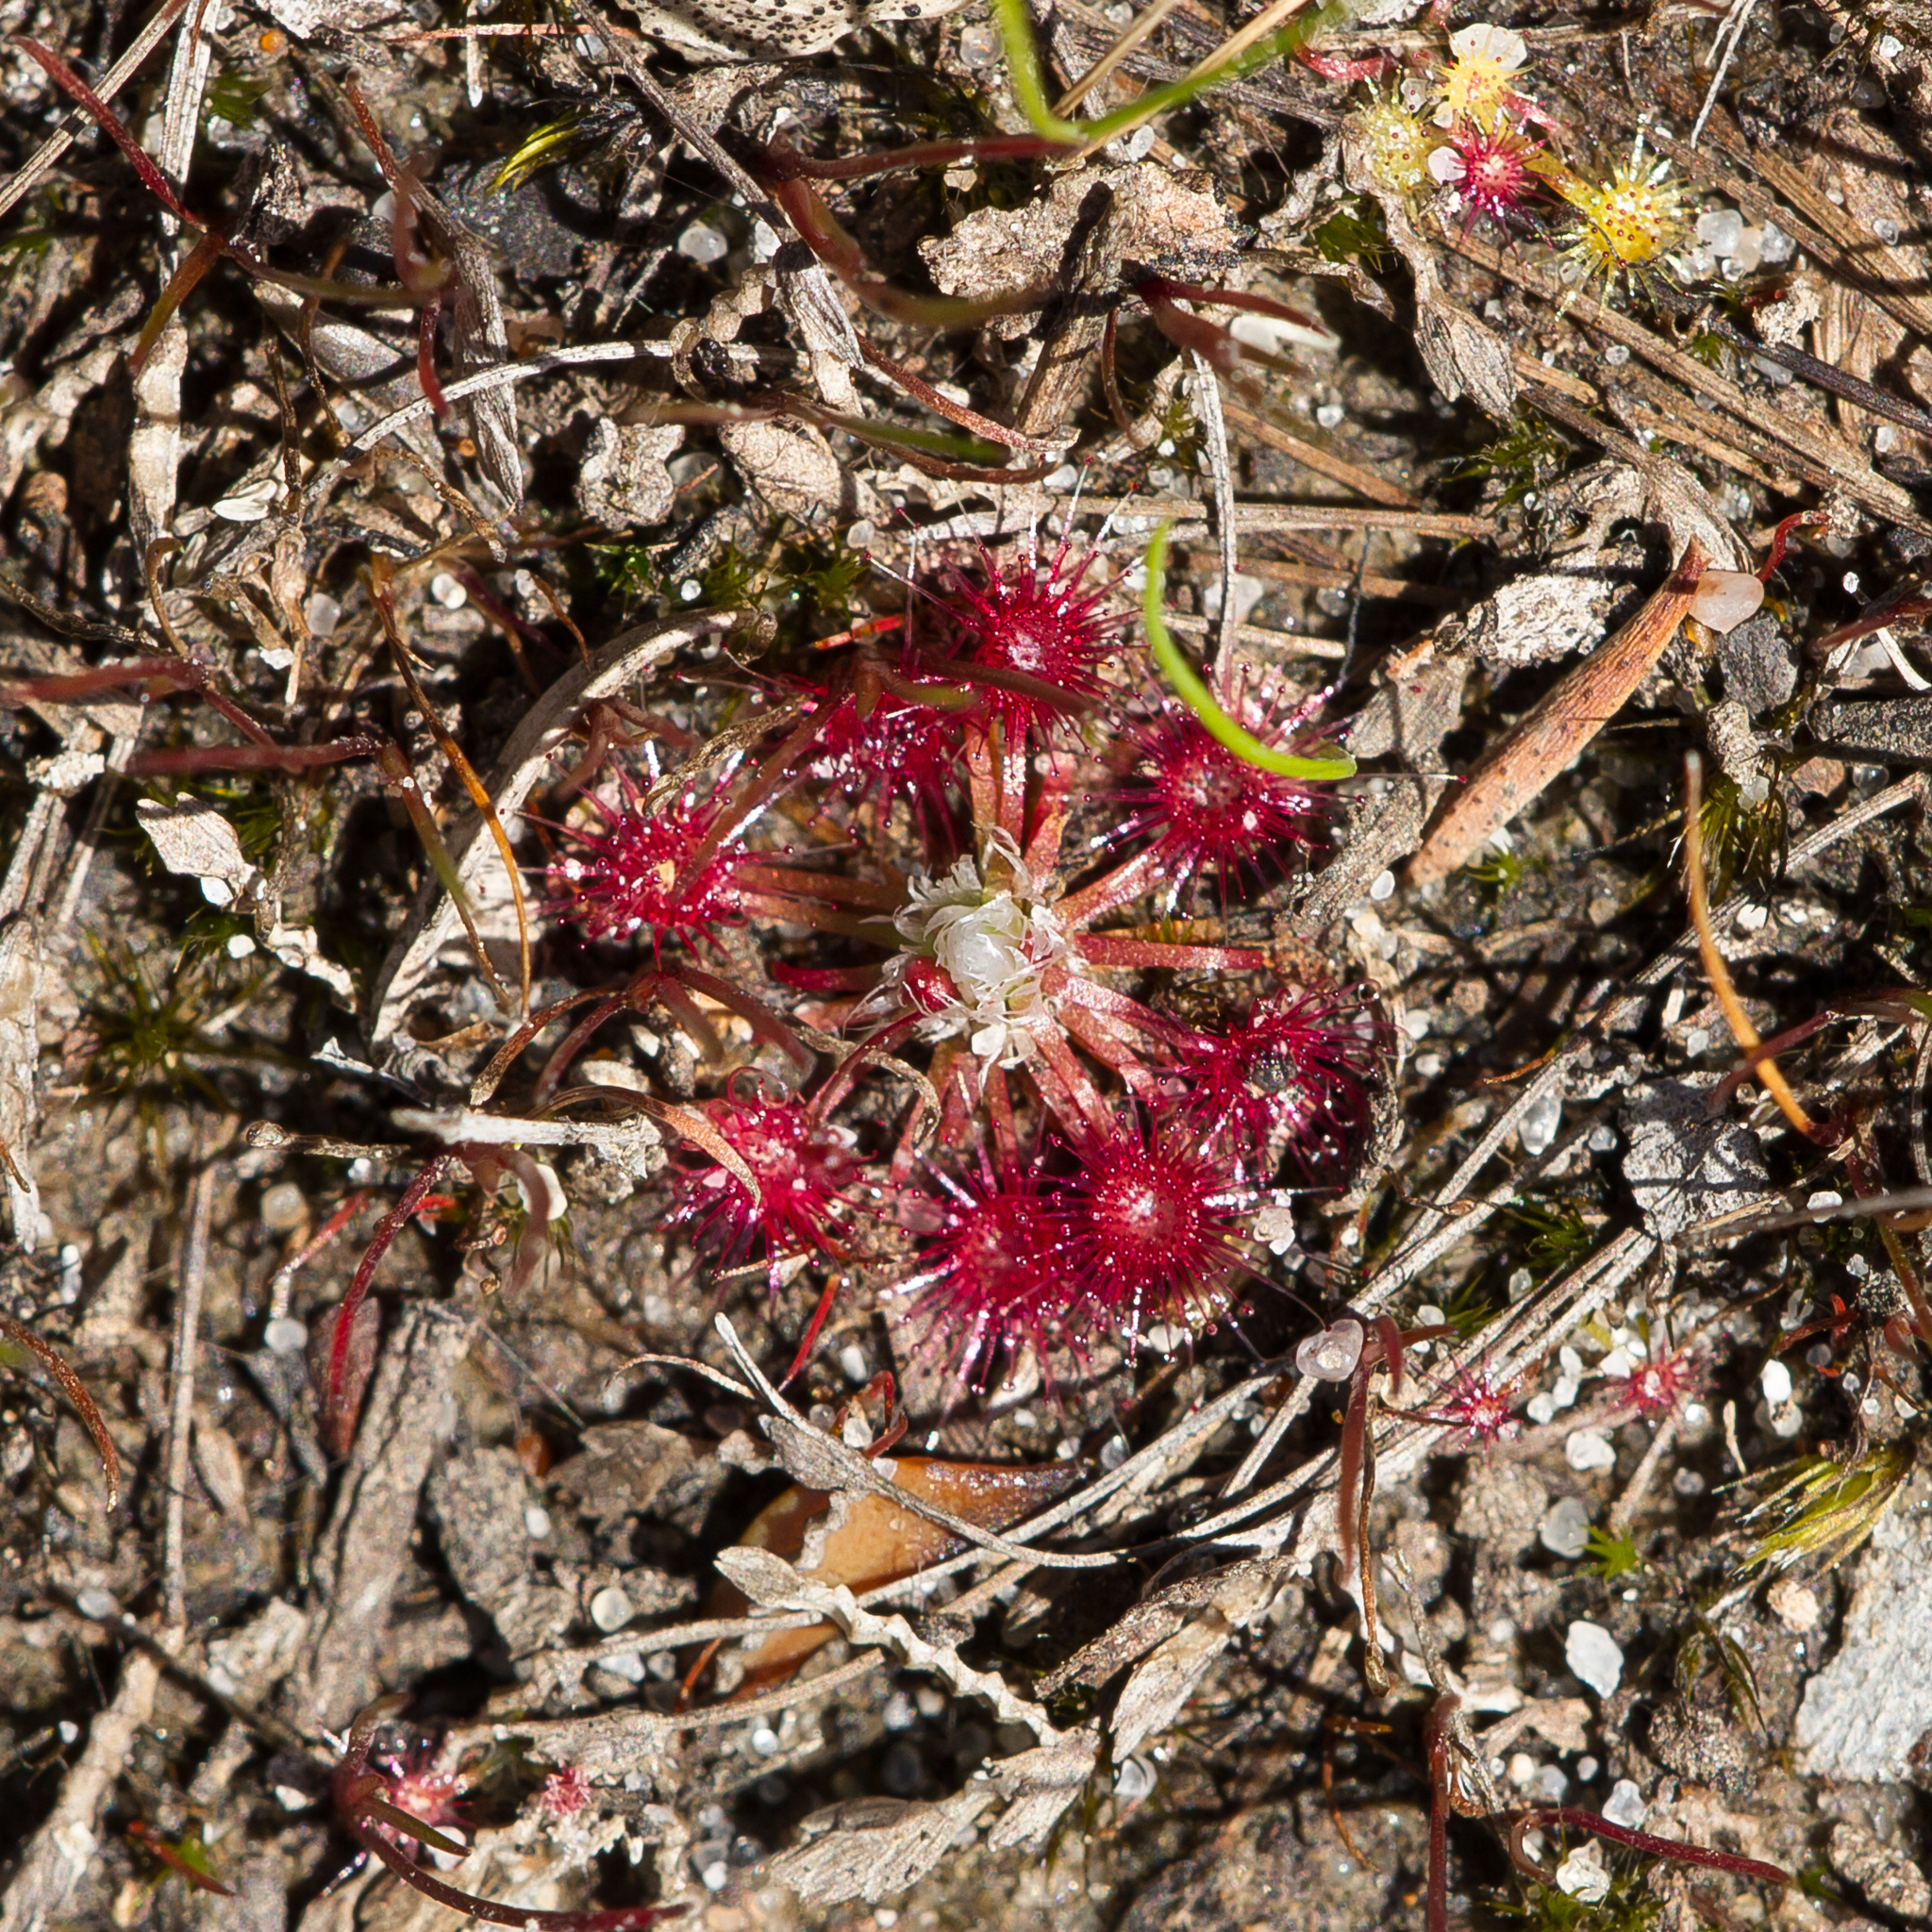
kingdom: Plantae
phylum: Tracheophyta
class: Magnoliopsida
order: Caryophyllales
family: Droseraceae
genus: Drosera
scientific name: Drosera pygmaea
